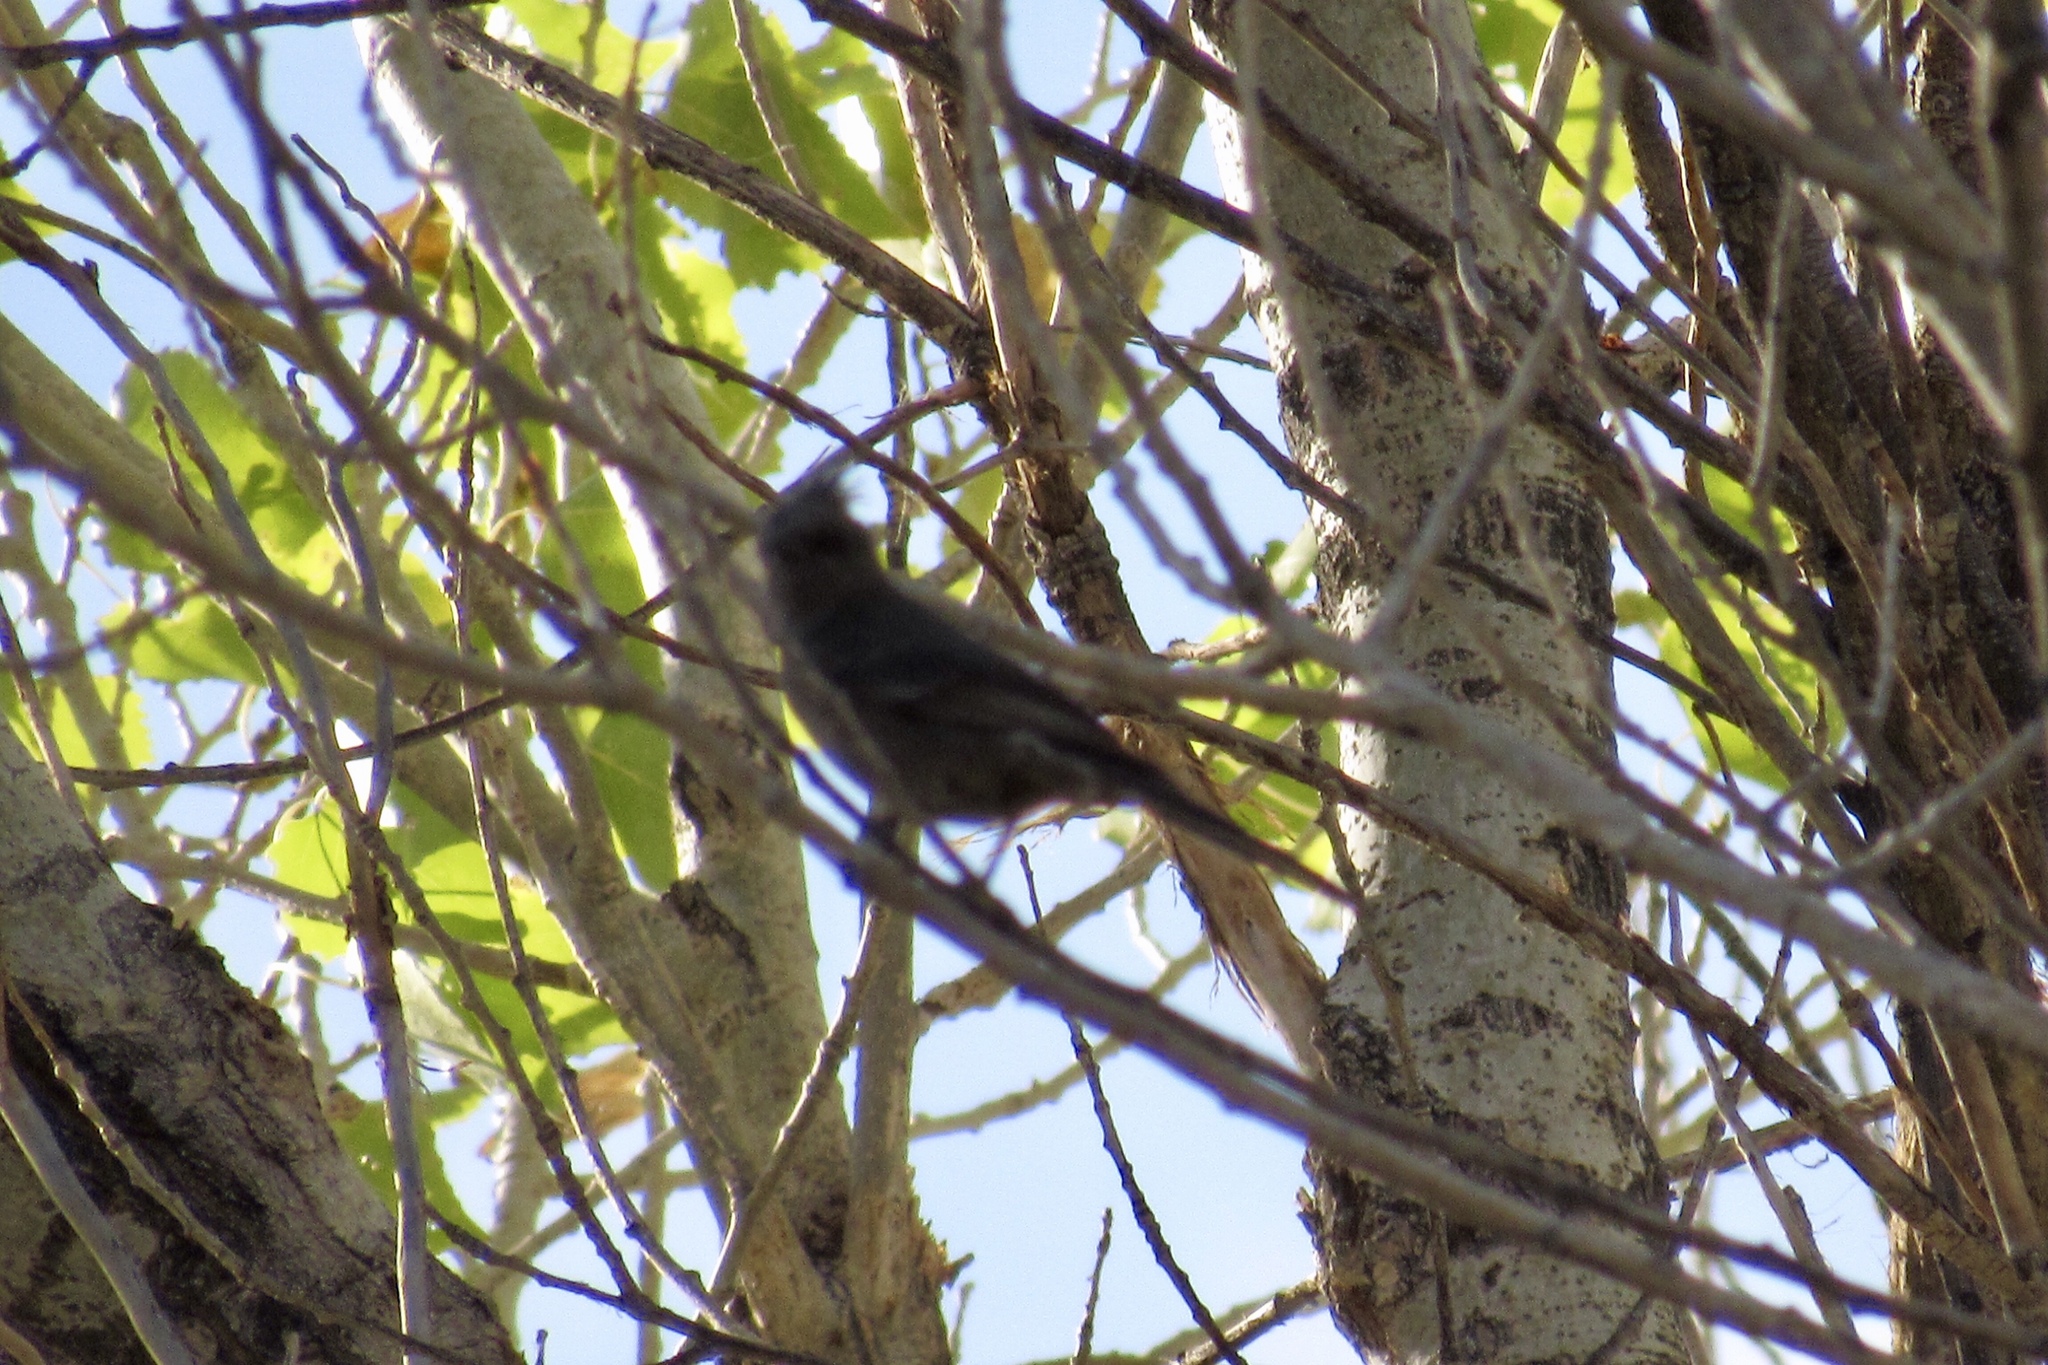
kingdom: Animalia
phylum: Chordata
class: Aves
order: Passeriformes
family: Ptilogonatidae
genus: Phainopepla
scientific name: Phainopepla nitens
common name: Phainopepla
